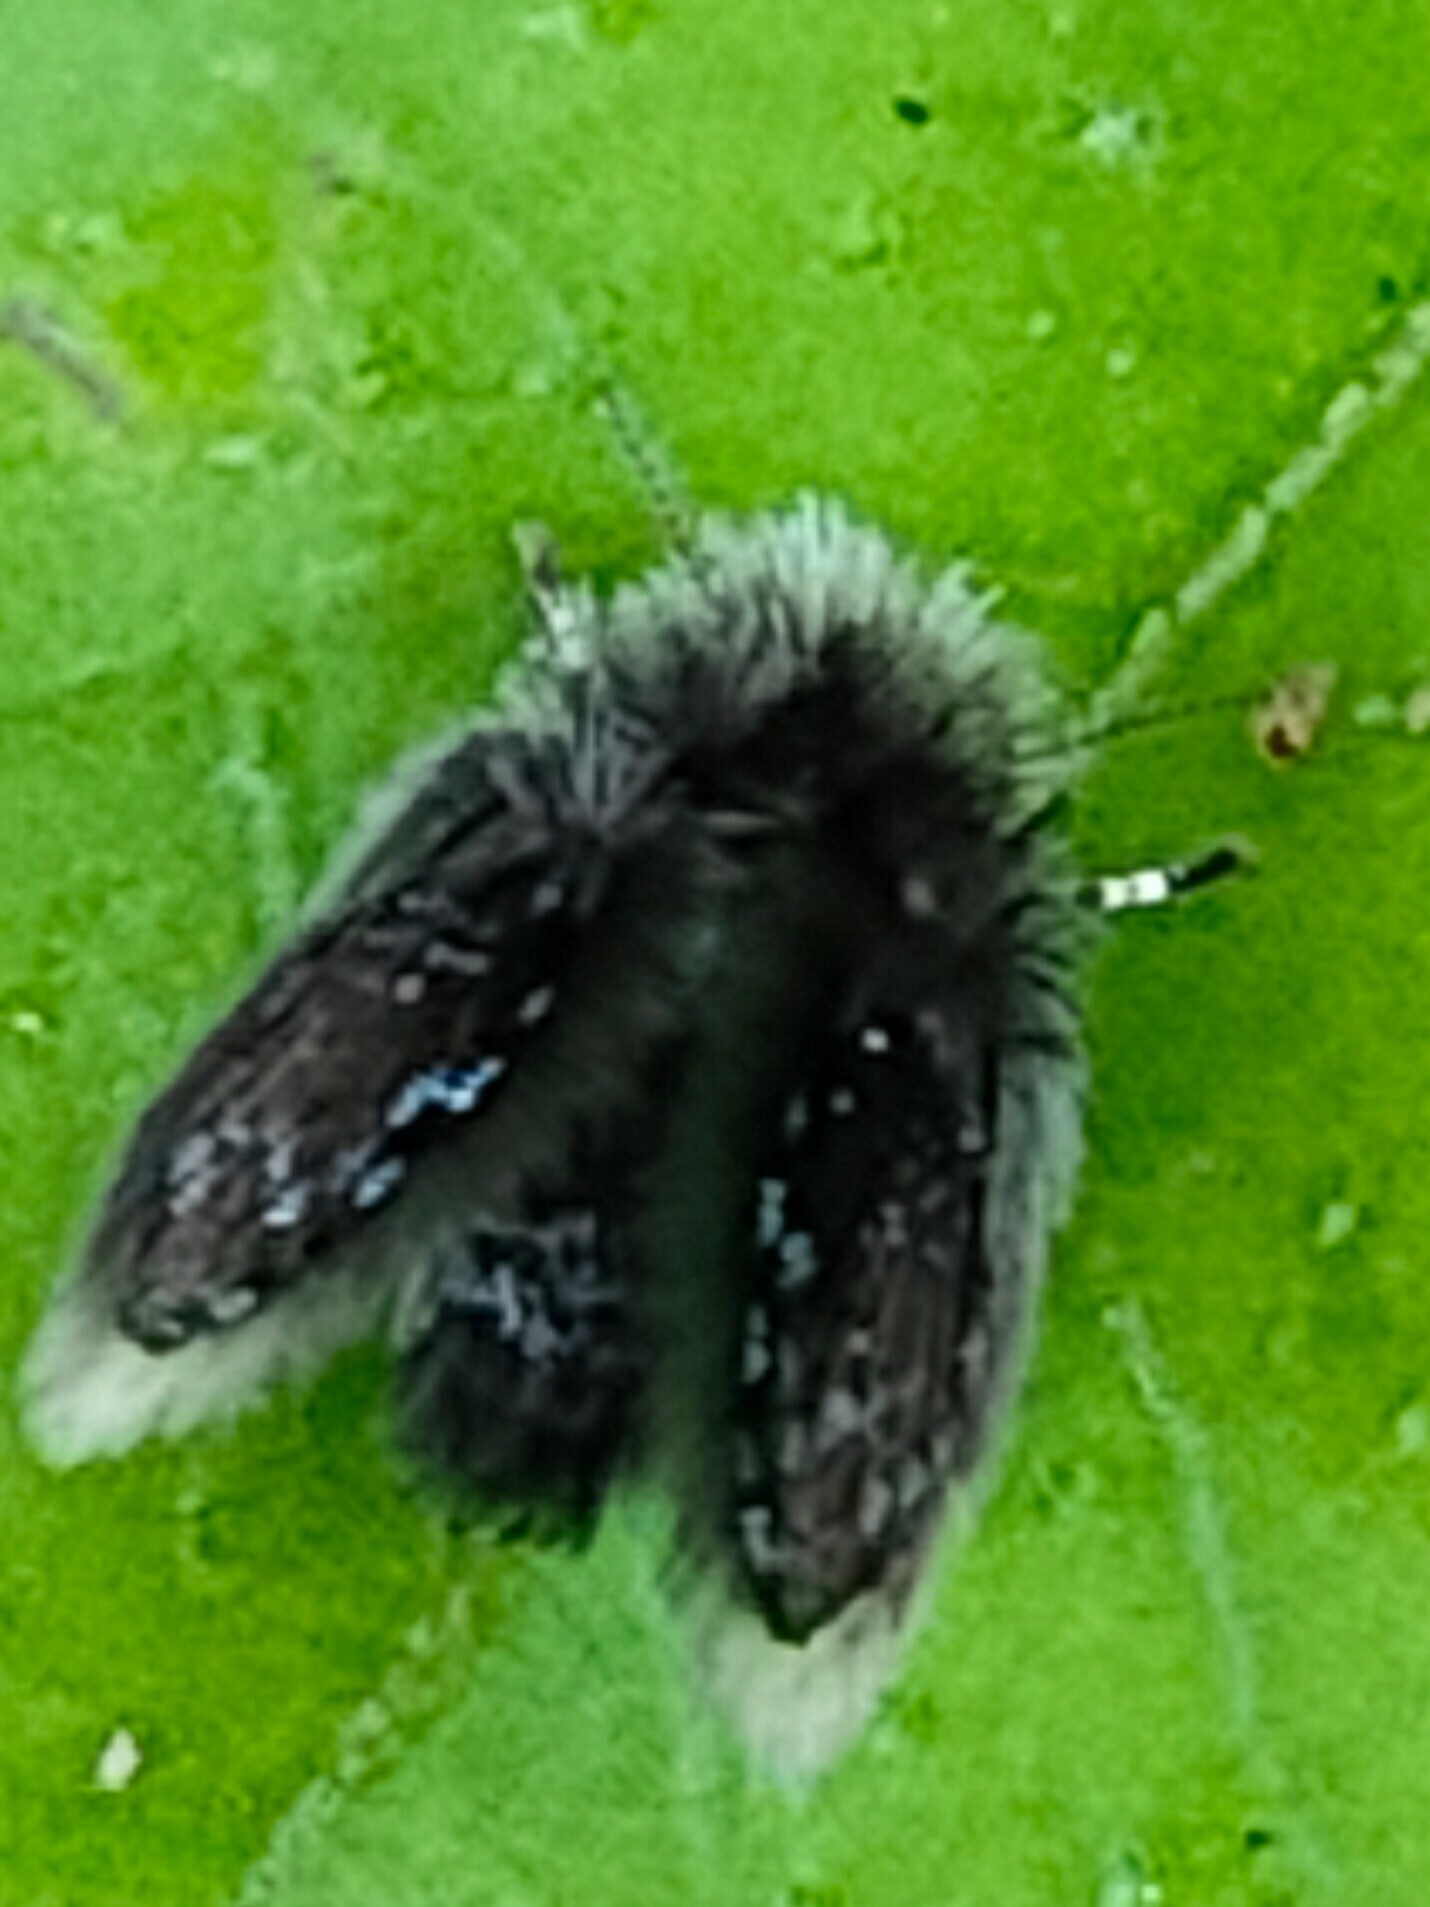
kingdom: Animalia
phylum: Arthropoda
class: Insecta
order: Diptera
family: Psychodidae
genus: Brunettia
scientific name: Brunettia ishiharai
